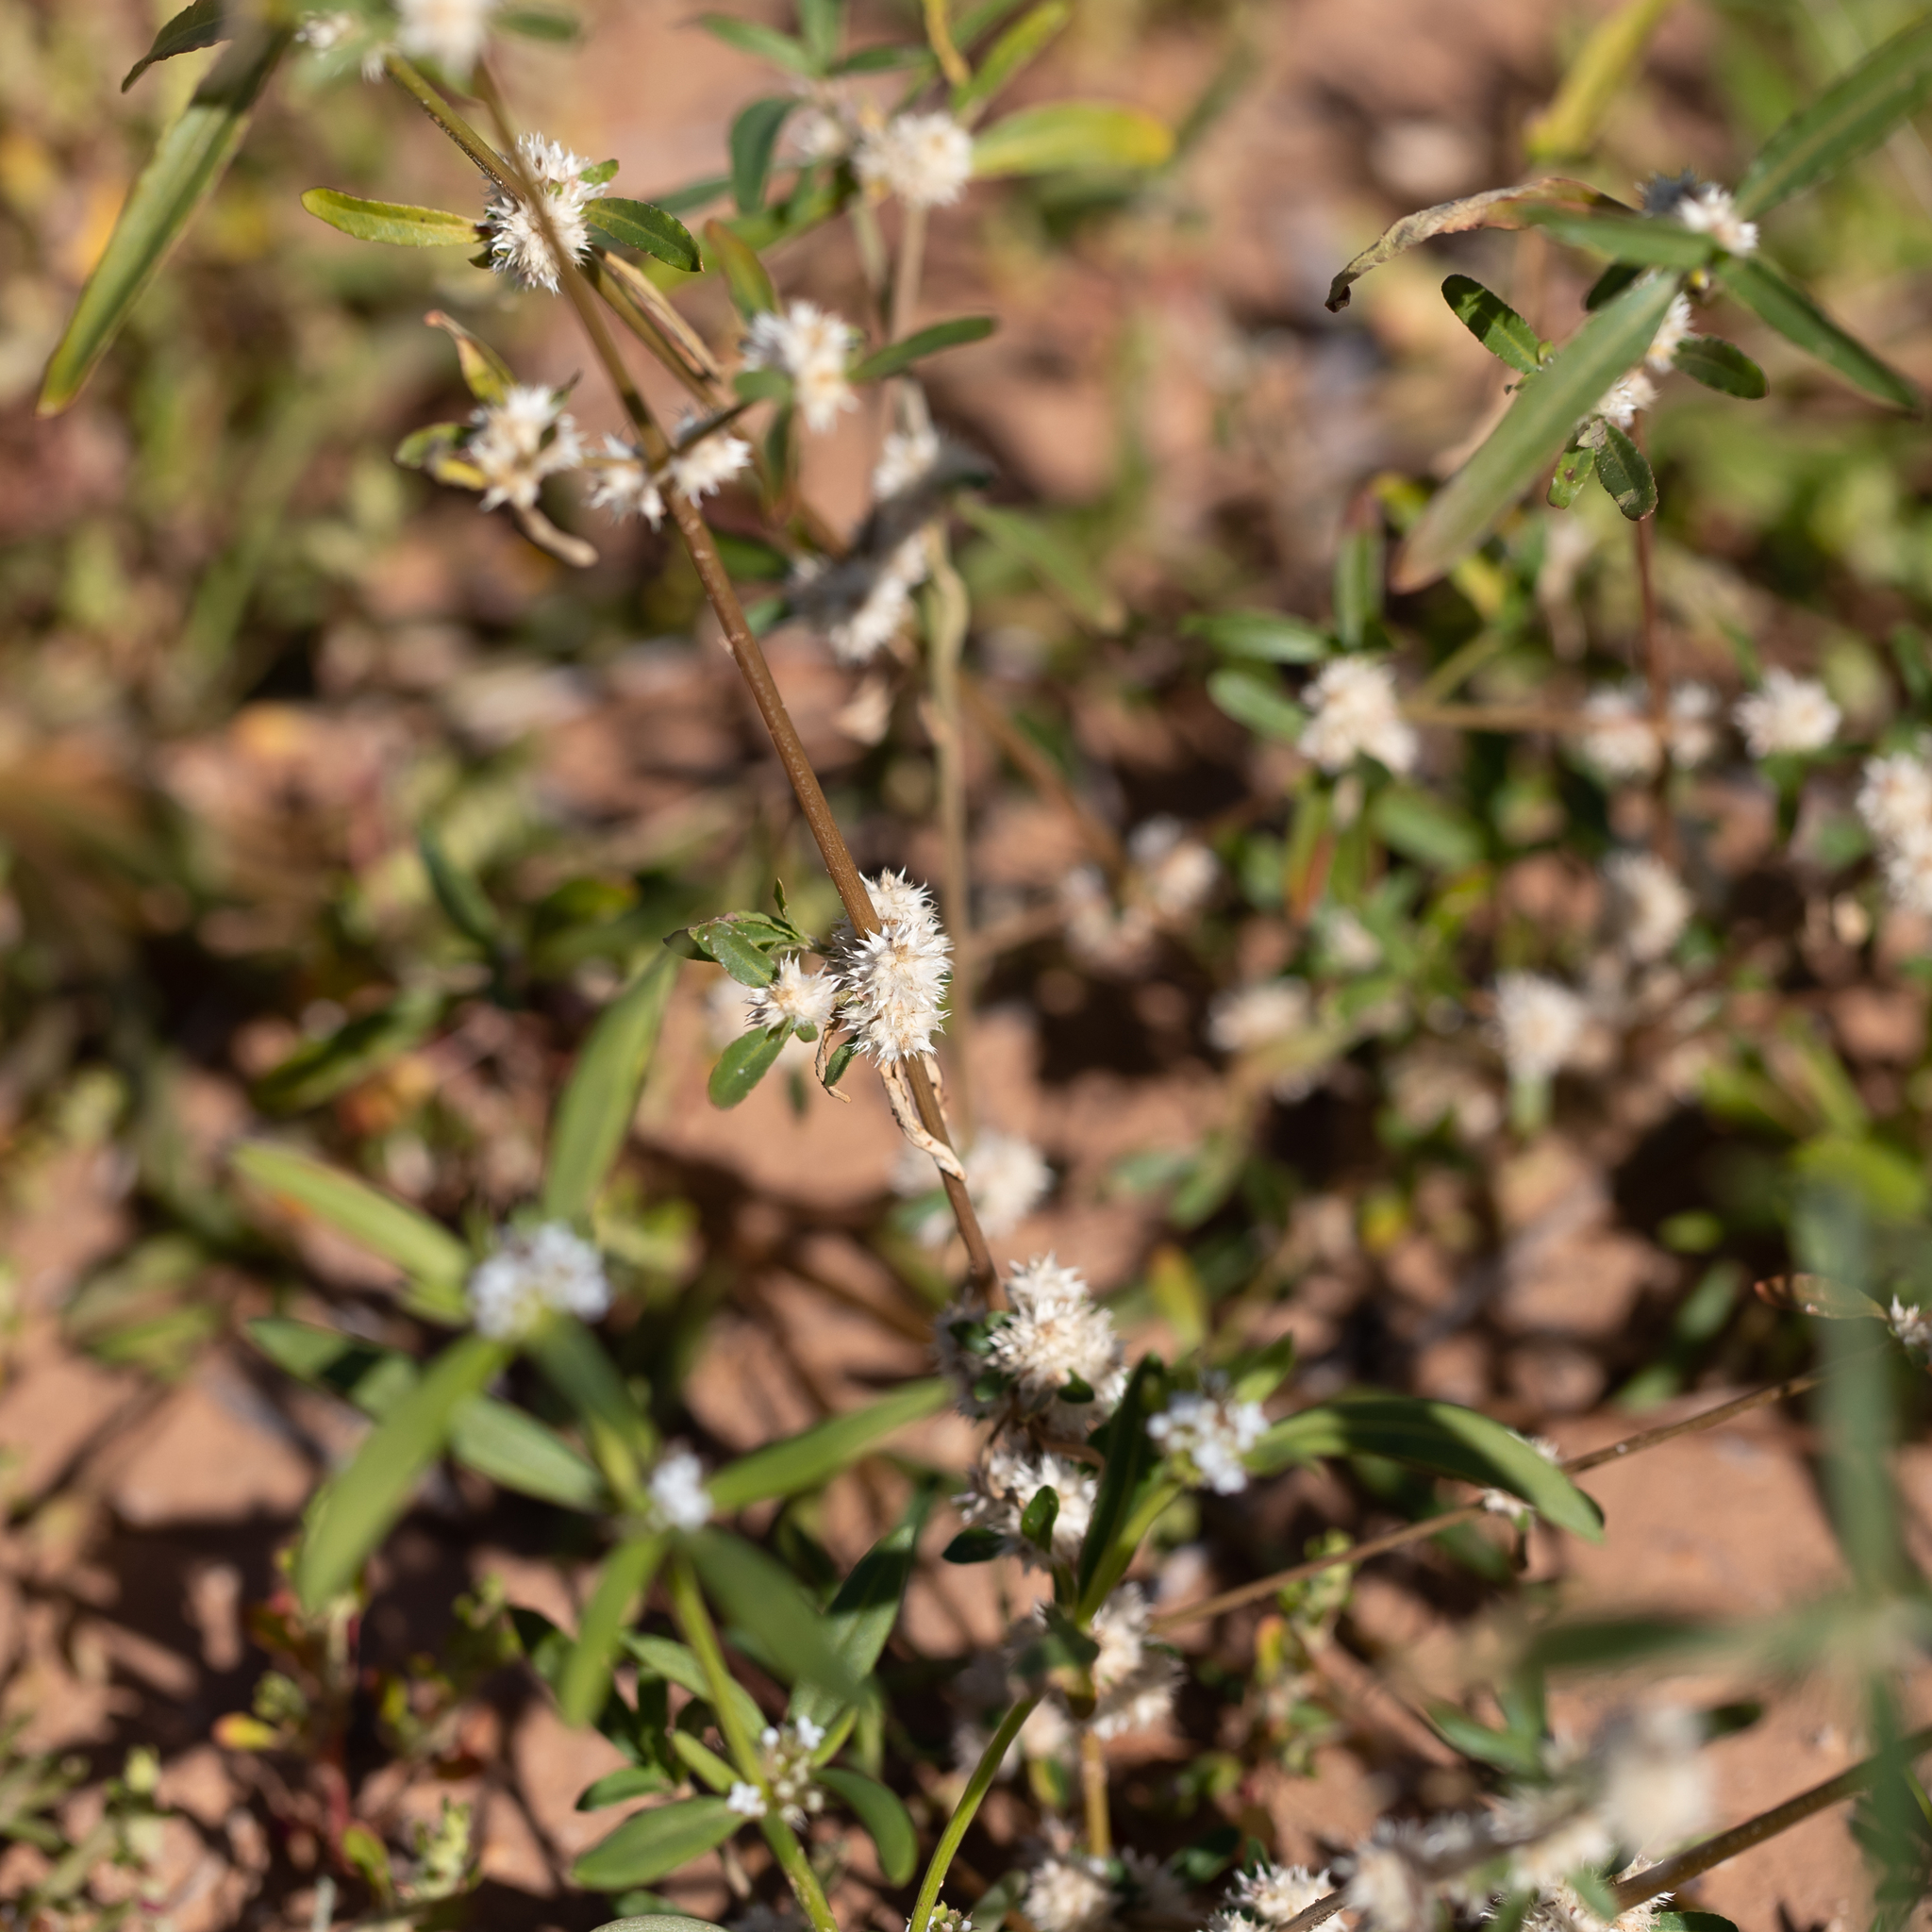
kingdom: Plantae
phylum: Tracheophyta
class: Magnoliopsida
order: Caryophyllales
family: Amaranthaceae
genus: Alternanthera
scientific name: Alternanthera denticulata
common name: Lesser joyweed
